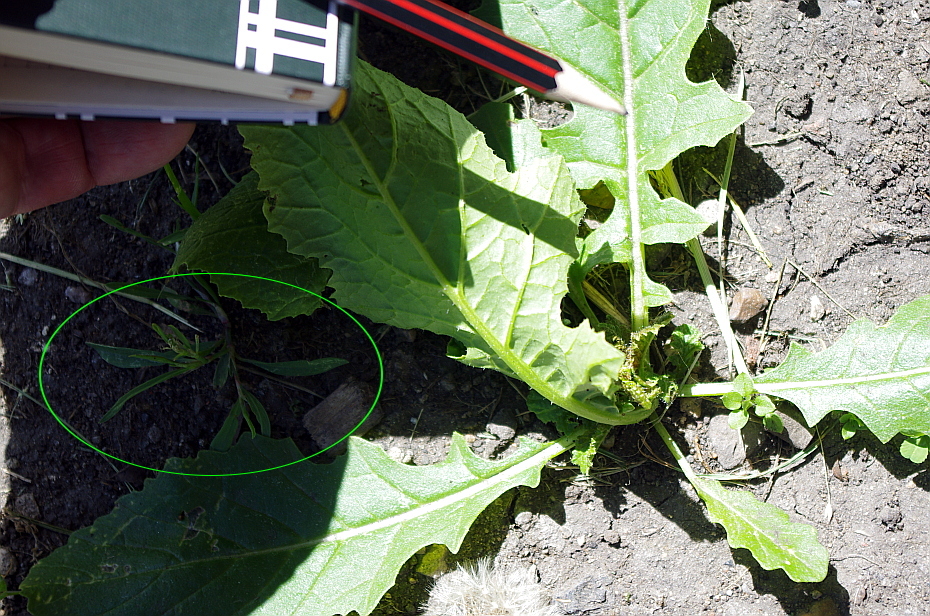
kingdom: Plantae
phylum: Tracheophyta
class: Magnoliopsida
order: Caryophyllales
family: Polygonaceae
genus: Polygonum
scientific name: Polygonum
